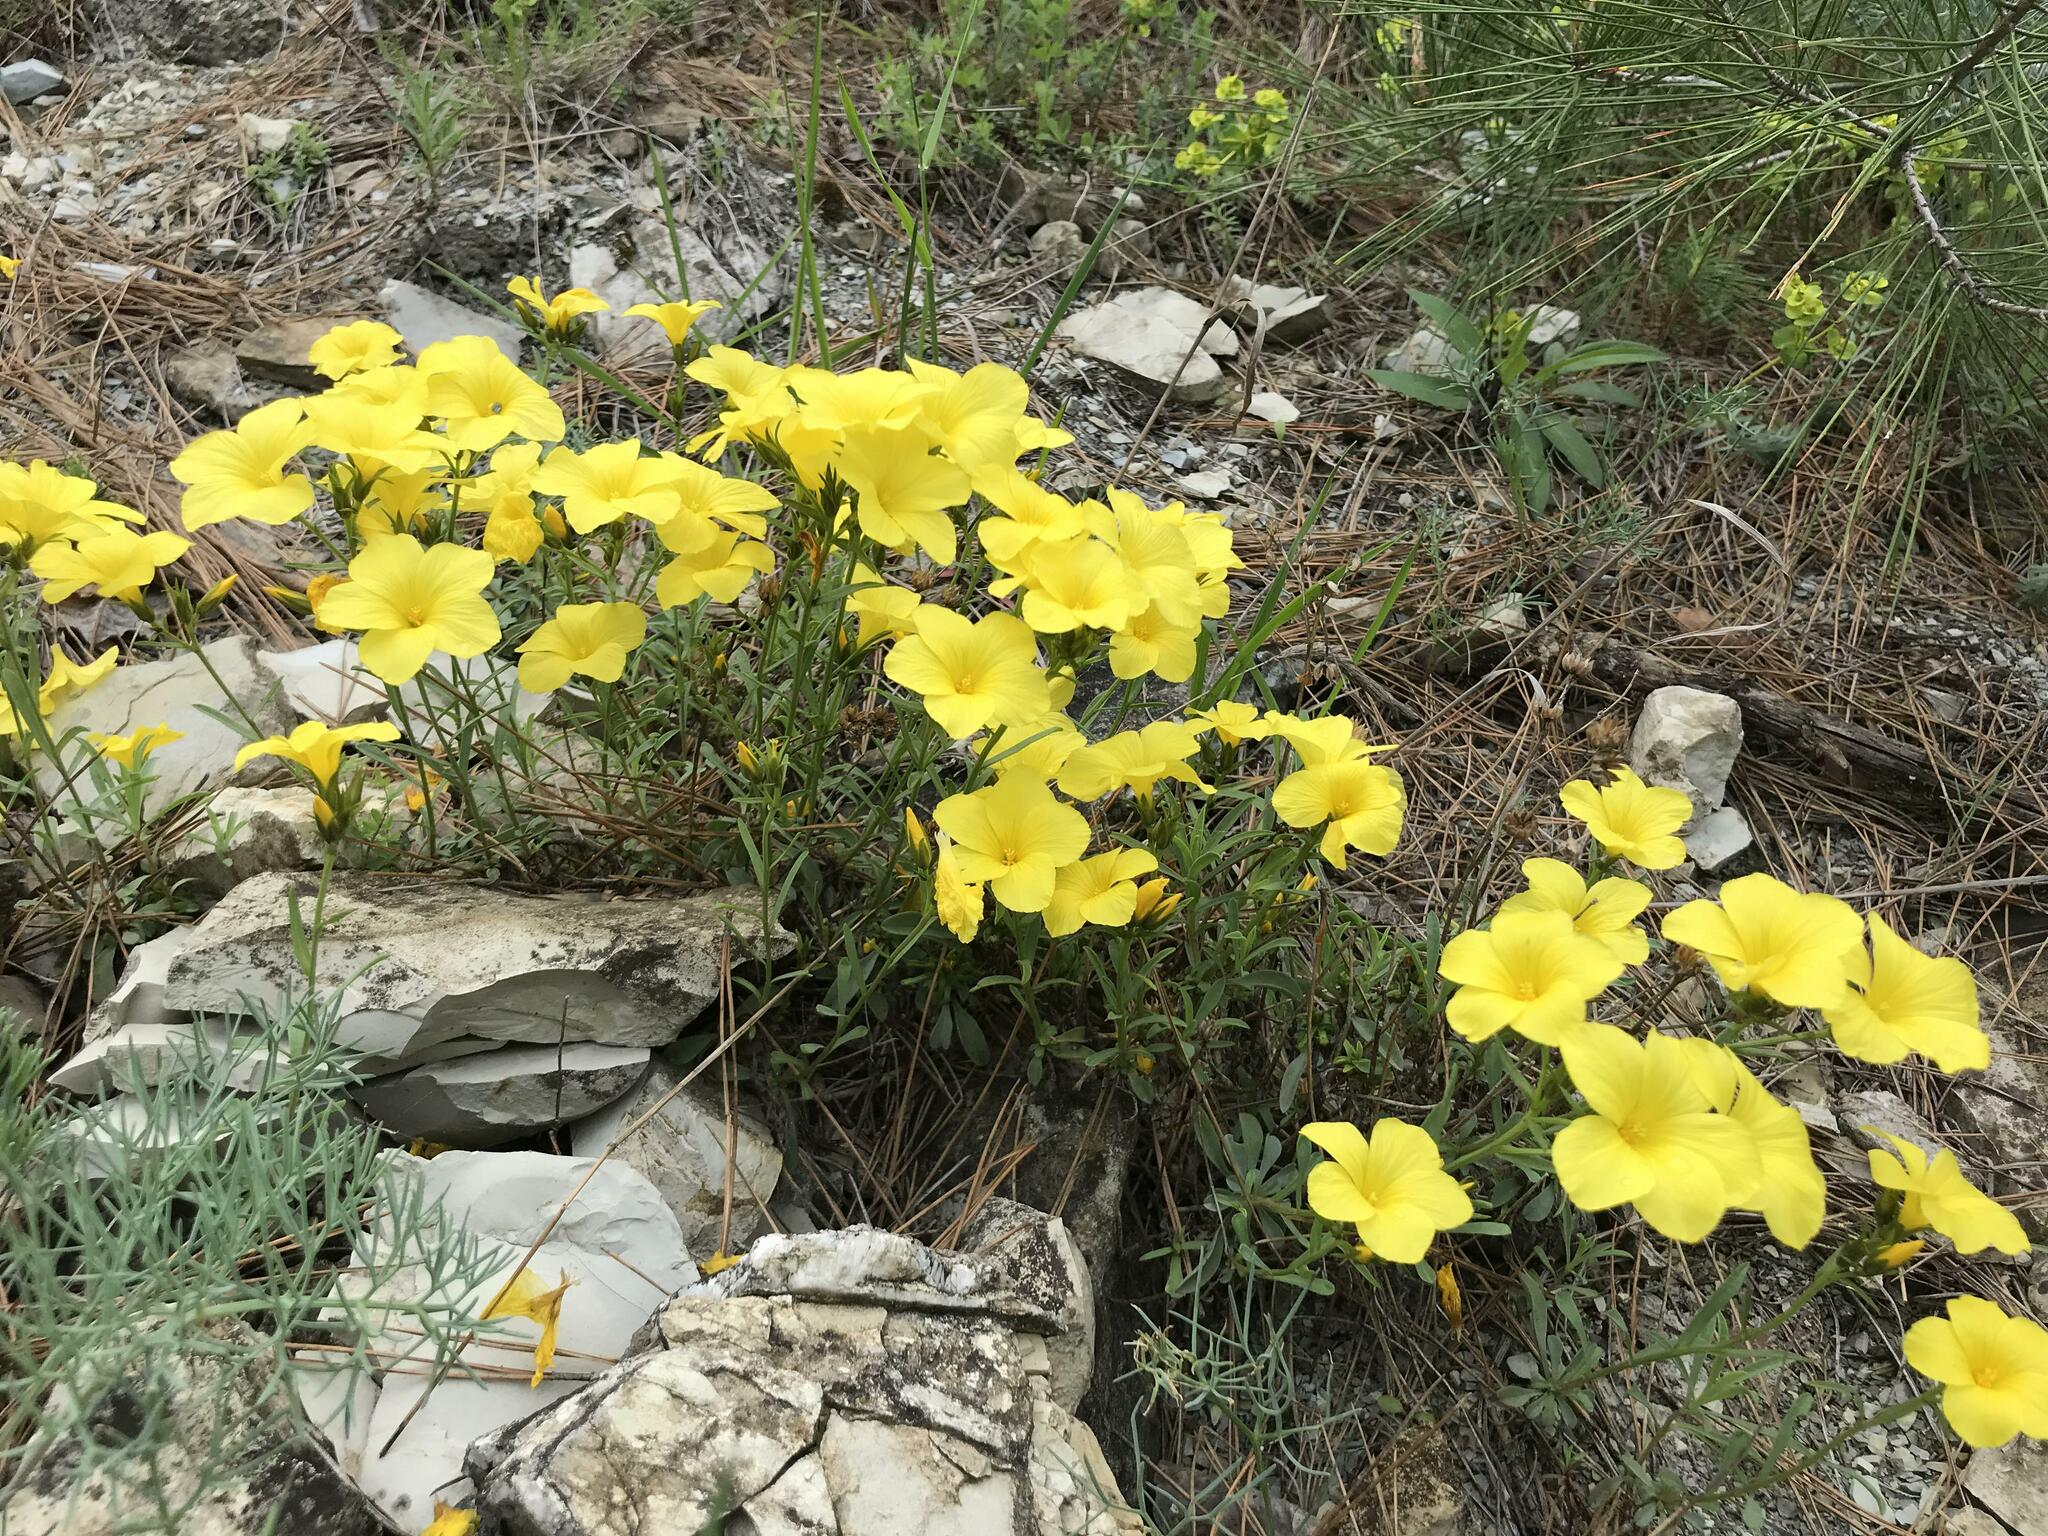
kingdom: Plantae
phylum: Tracheophyta
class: Magnoliopsida
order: Malpighiales
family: Linaceae
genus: Linum
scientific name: Linum tauricum
